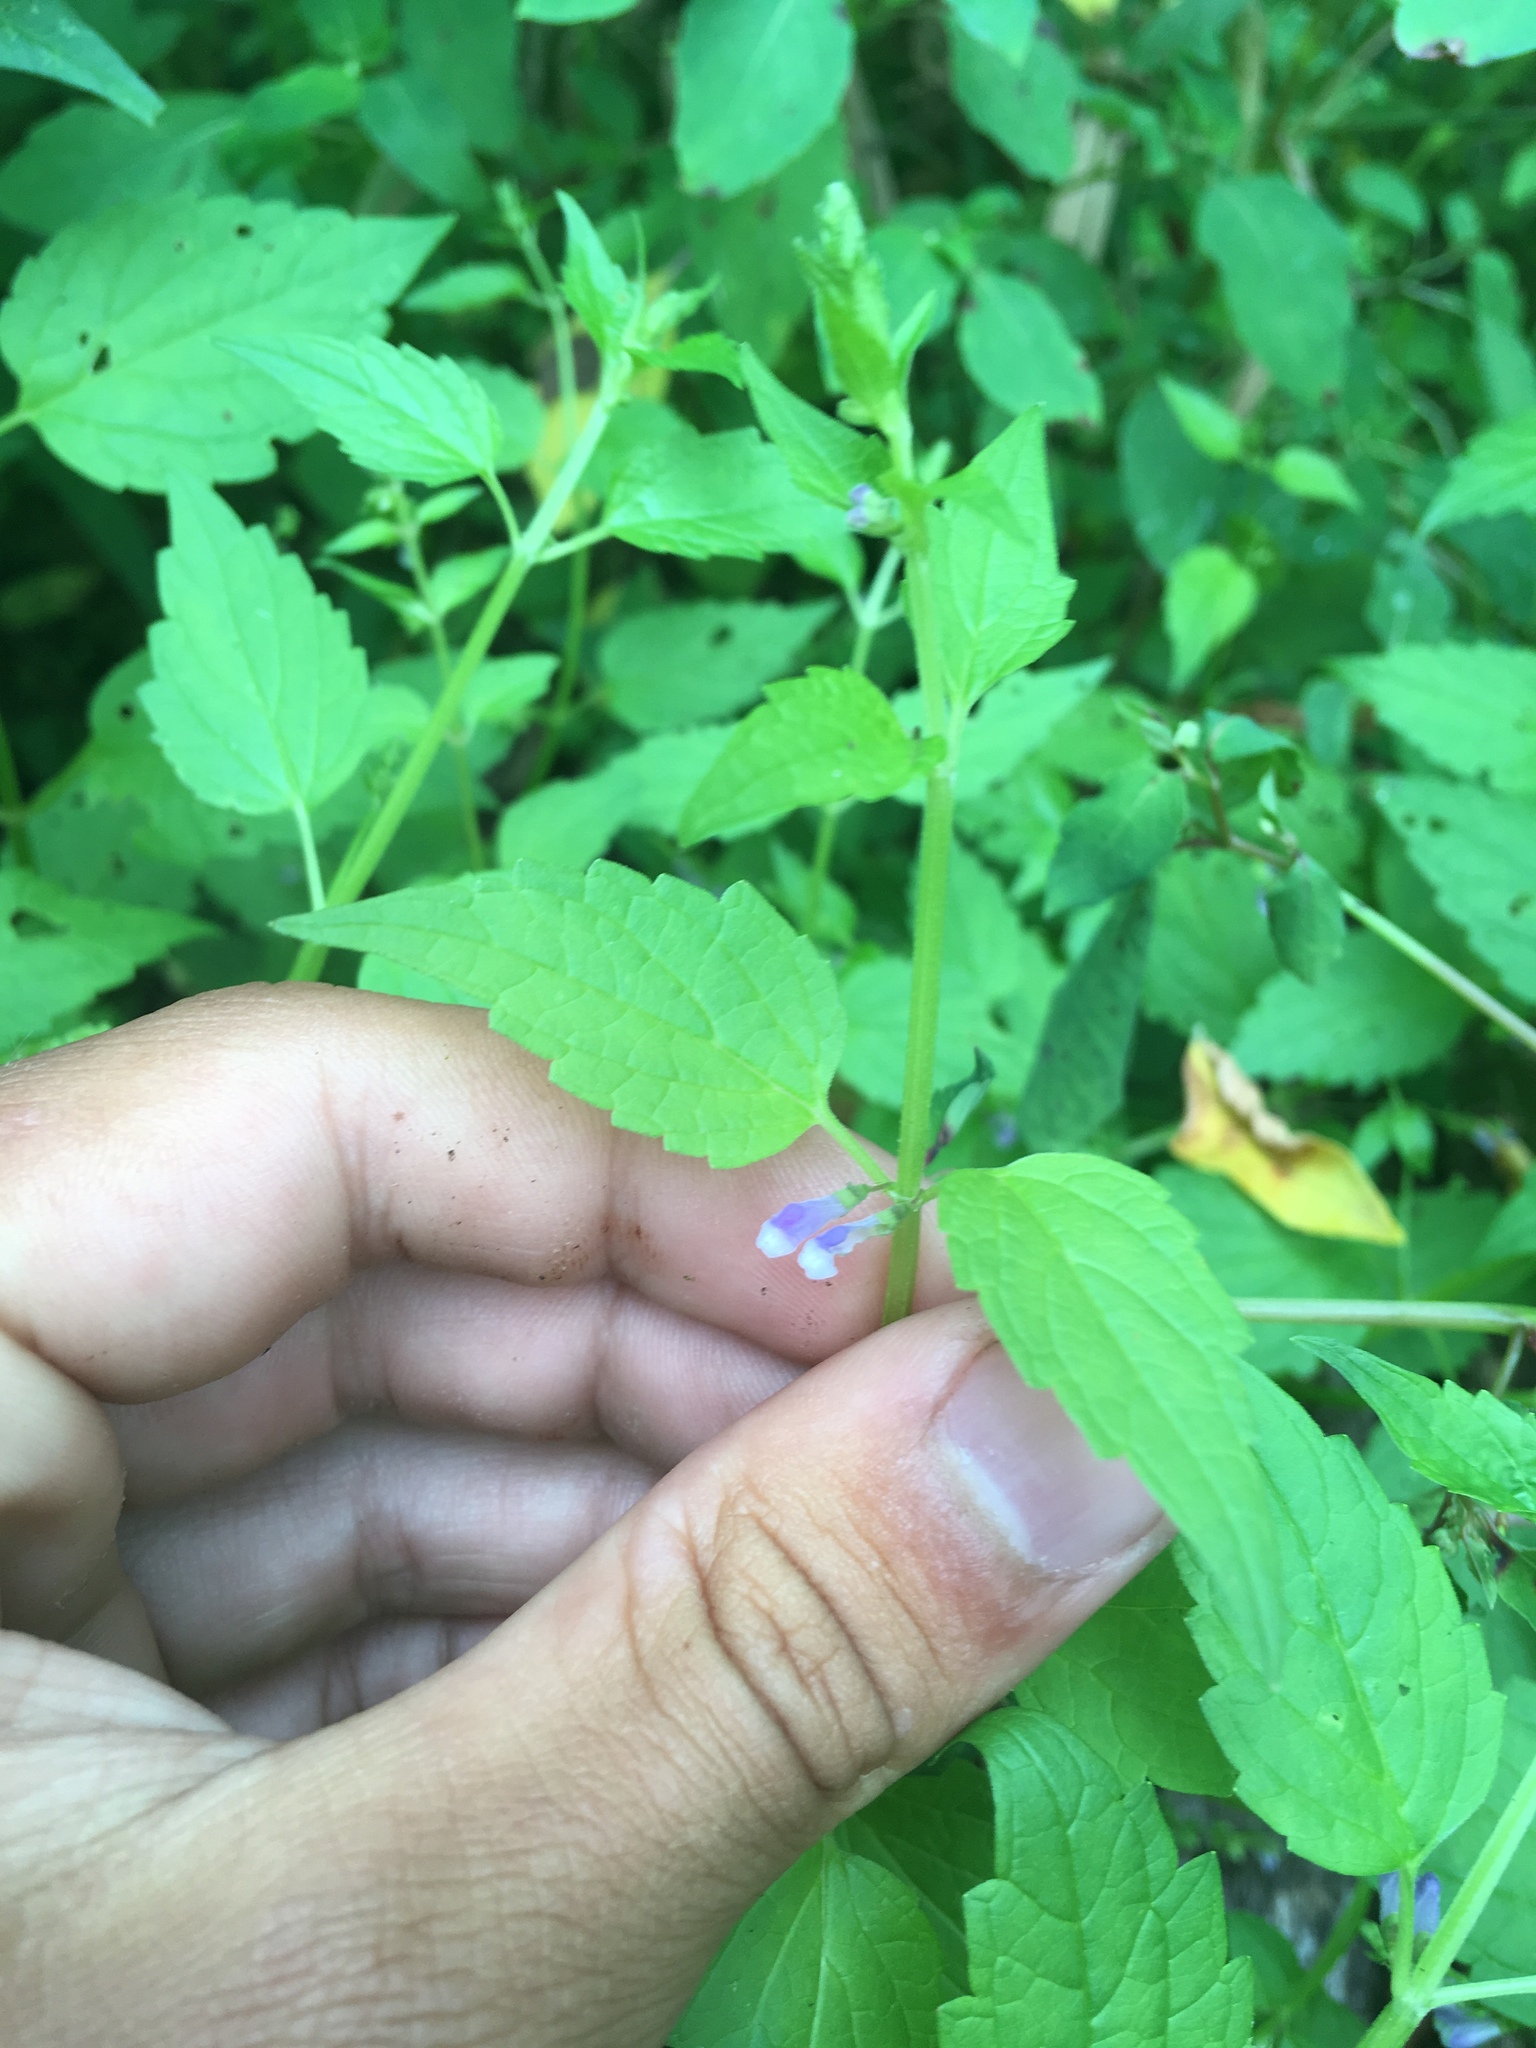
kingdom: Plantae
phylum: Tracheophyta
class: Magnoliopsida
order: Lamiales
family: Lamiaceae
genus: Scutellaria
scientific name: Scutellaria lateriflora
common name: Blue skullcap
